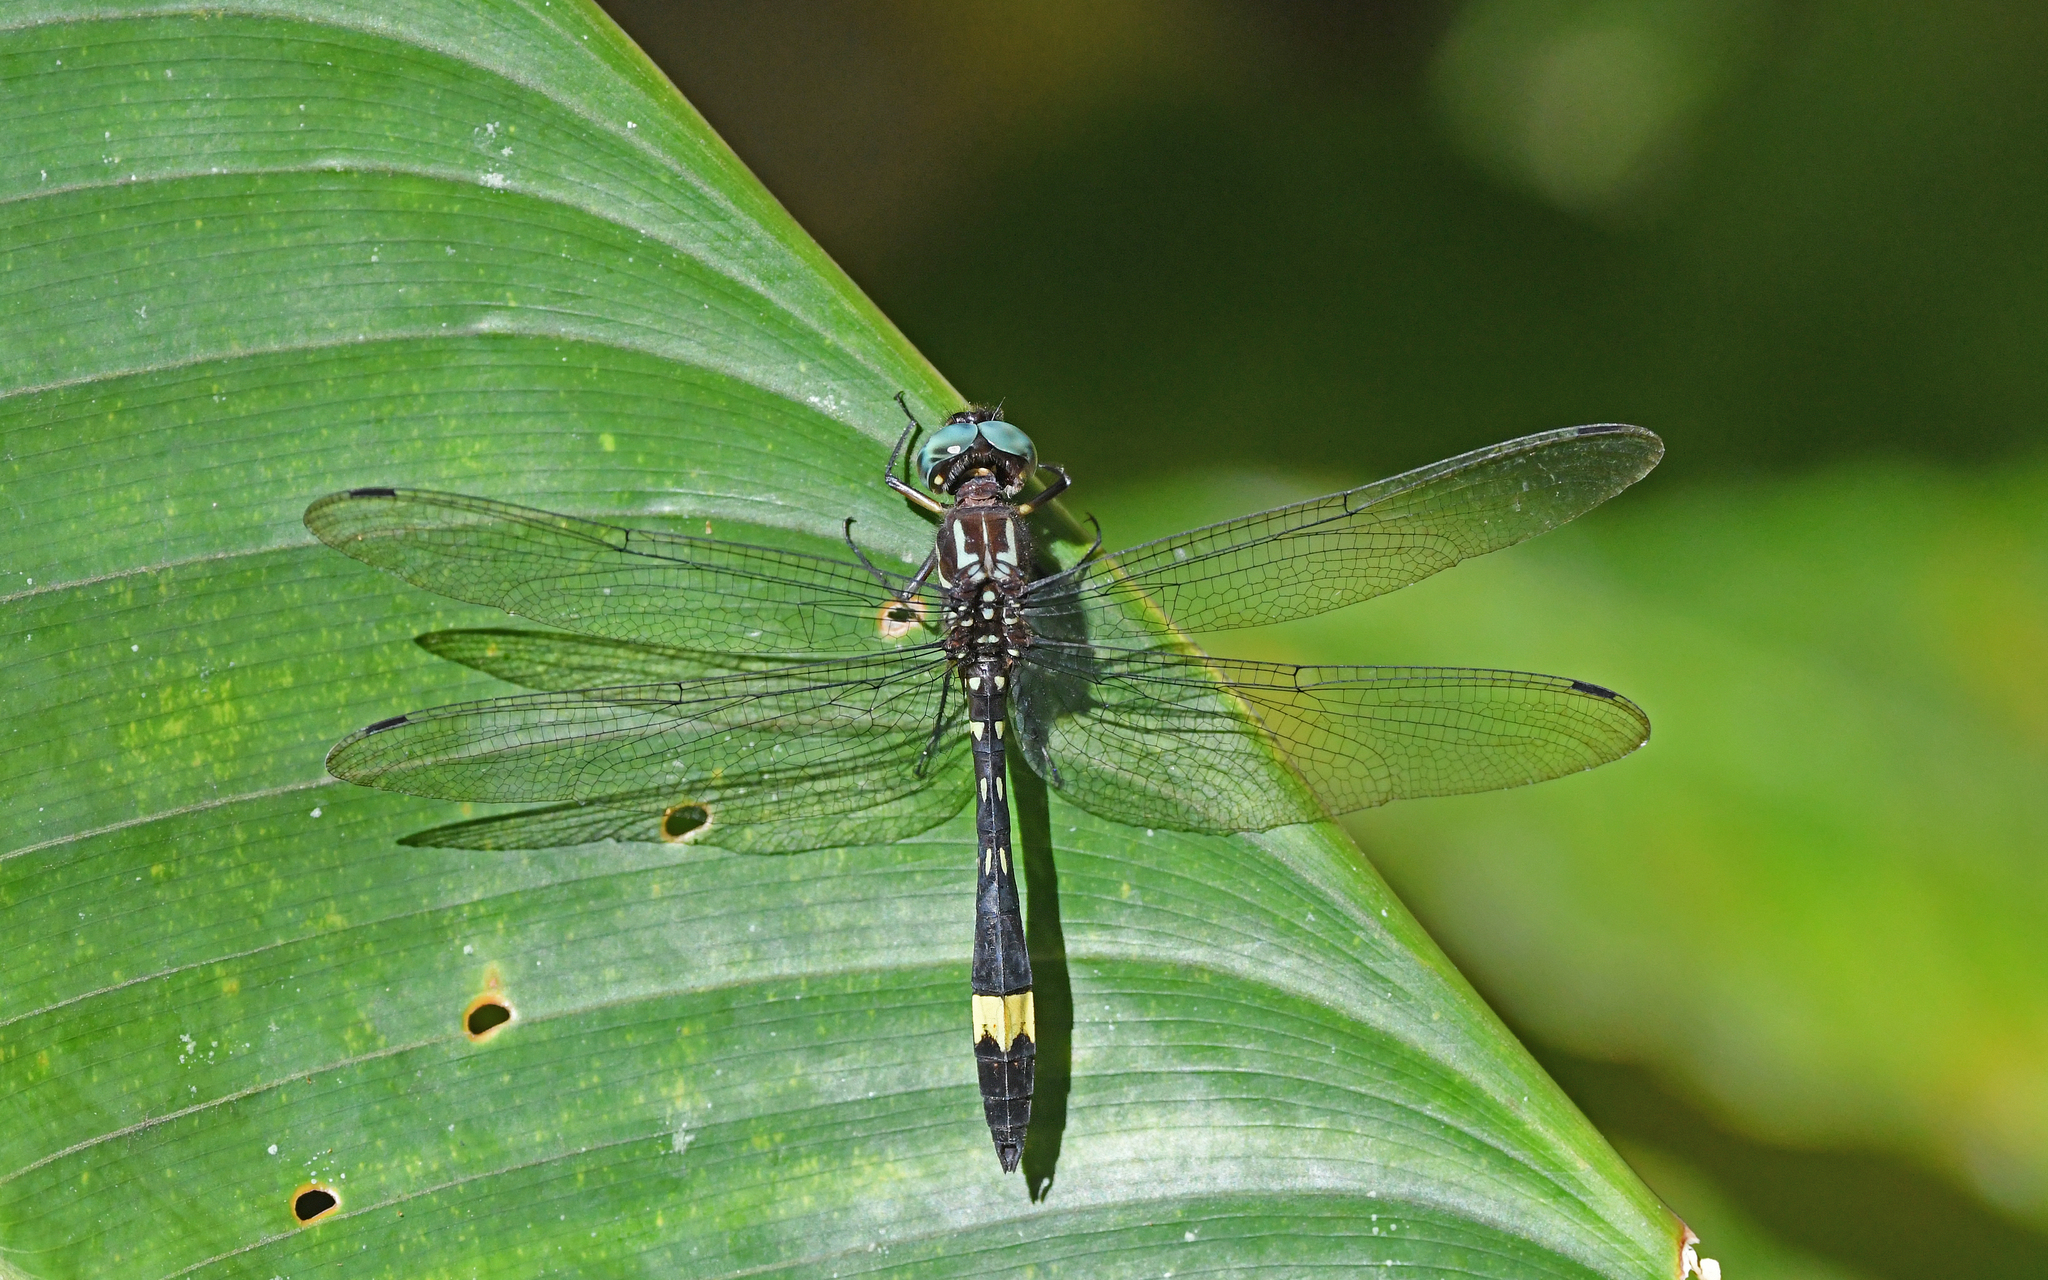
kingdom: Animalia
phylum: Arthropoda
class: Insecta
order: Odonata
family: Libellulidae
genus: Brechmorhoga
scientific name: Brechmorhoga rapax
